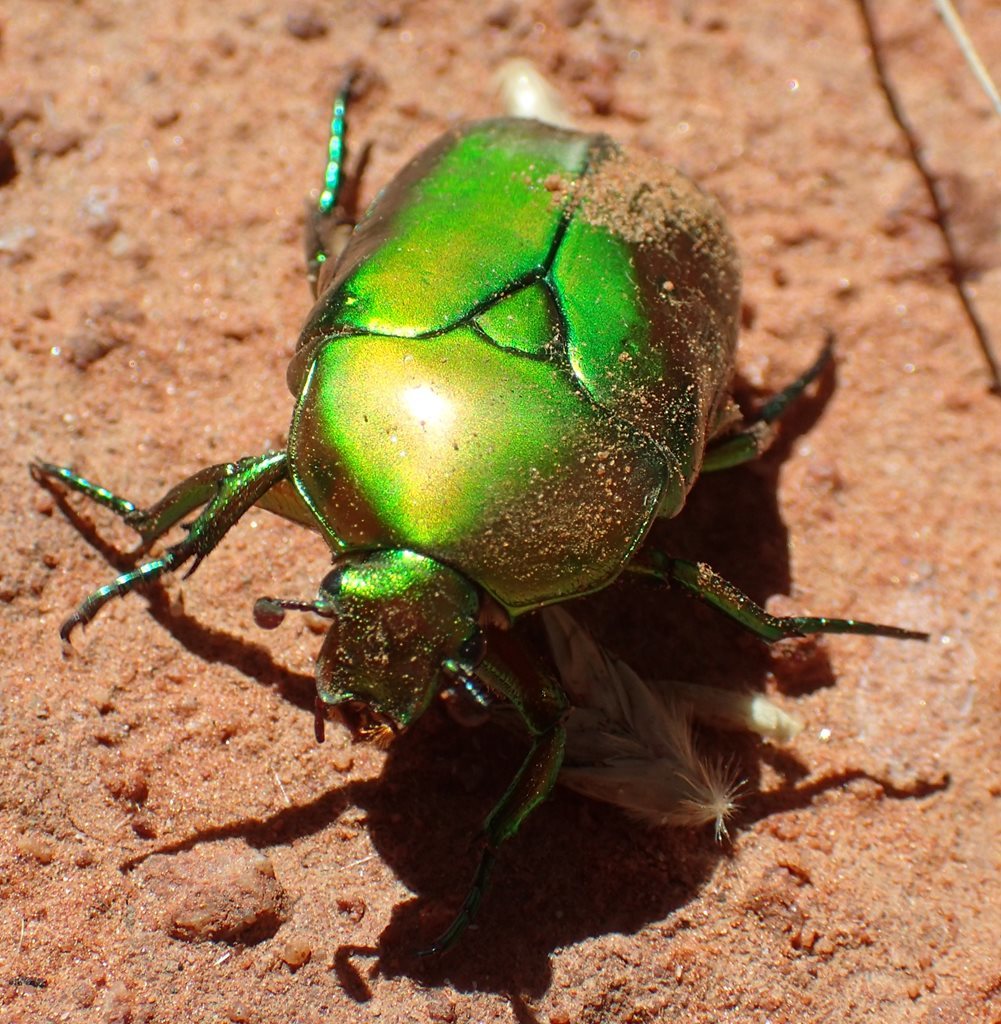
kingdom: Animalia
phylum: Arthropoda
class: Insecta
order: Coleoptera
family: Scarabaeidae
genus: Hemipharis
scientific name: Hemipharis insularis
